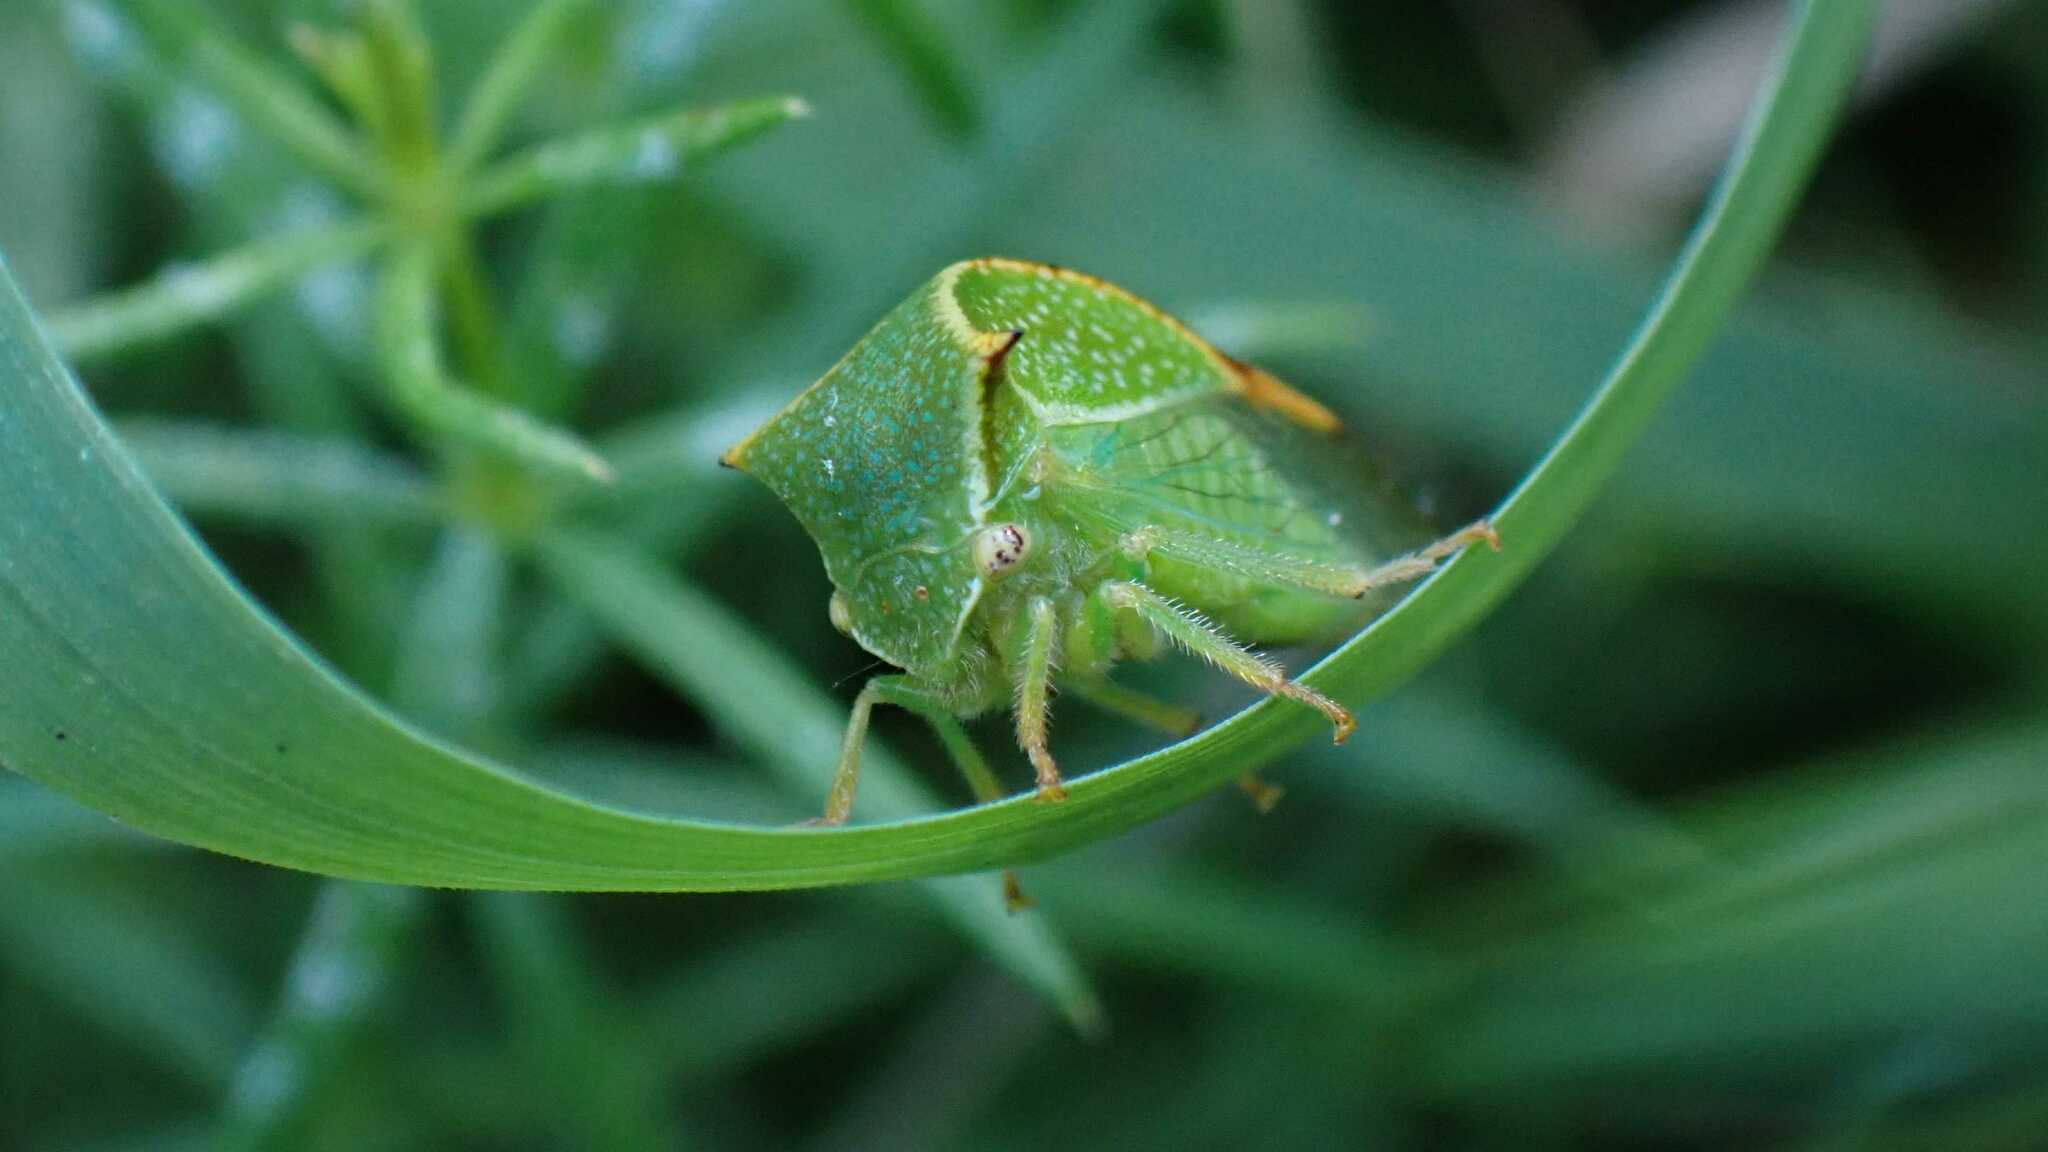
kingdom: Animalia
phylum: Arthropoda
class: Insecta
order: Hemiptera
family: Membracidae
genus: Stictocephala
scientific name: Stictocephala bisonia
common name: American buffalo treehopper
